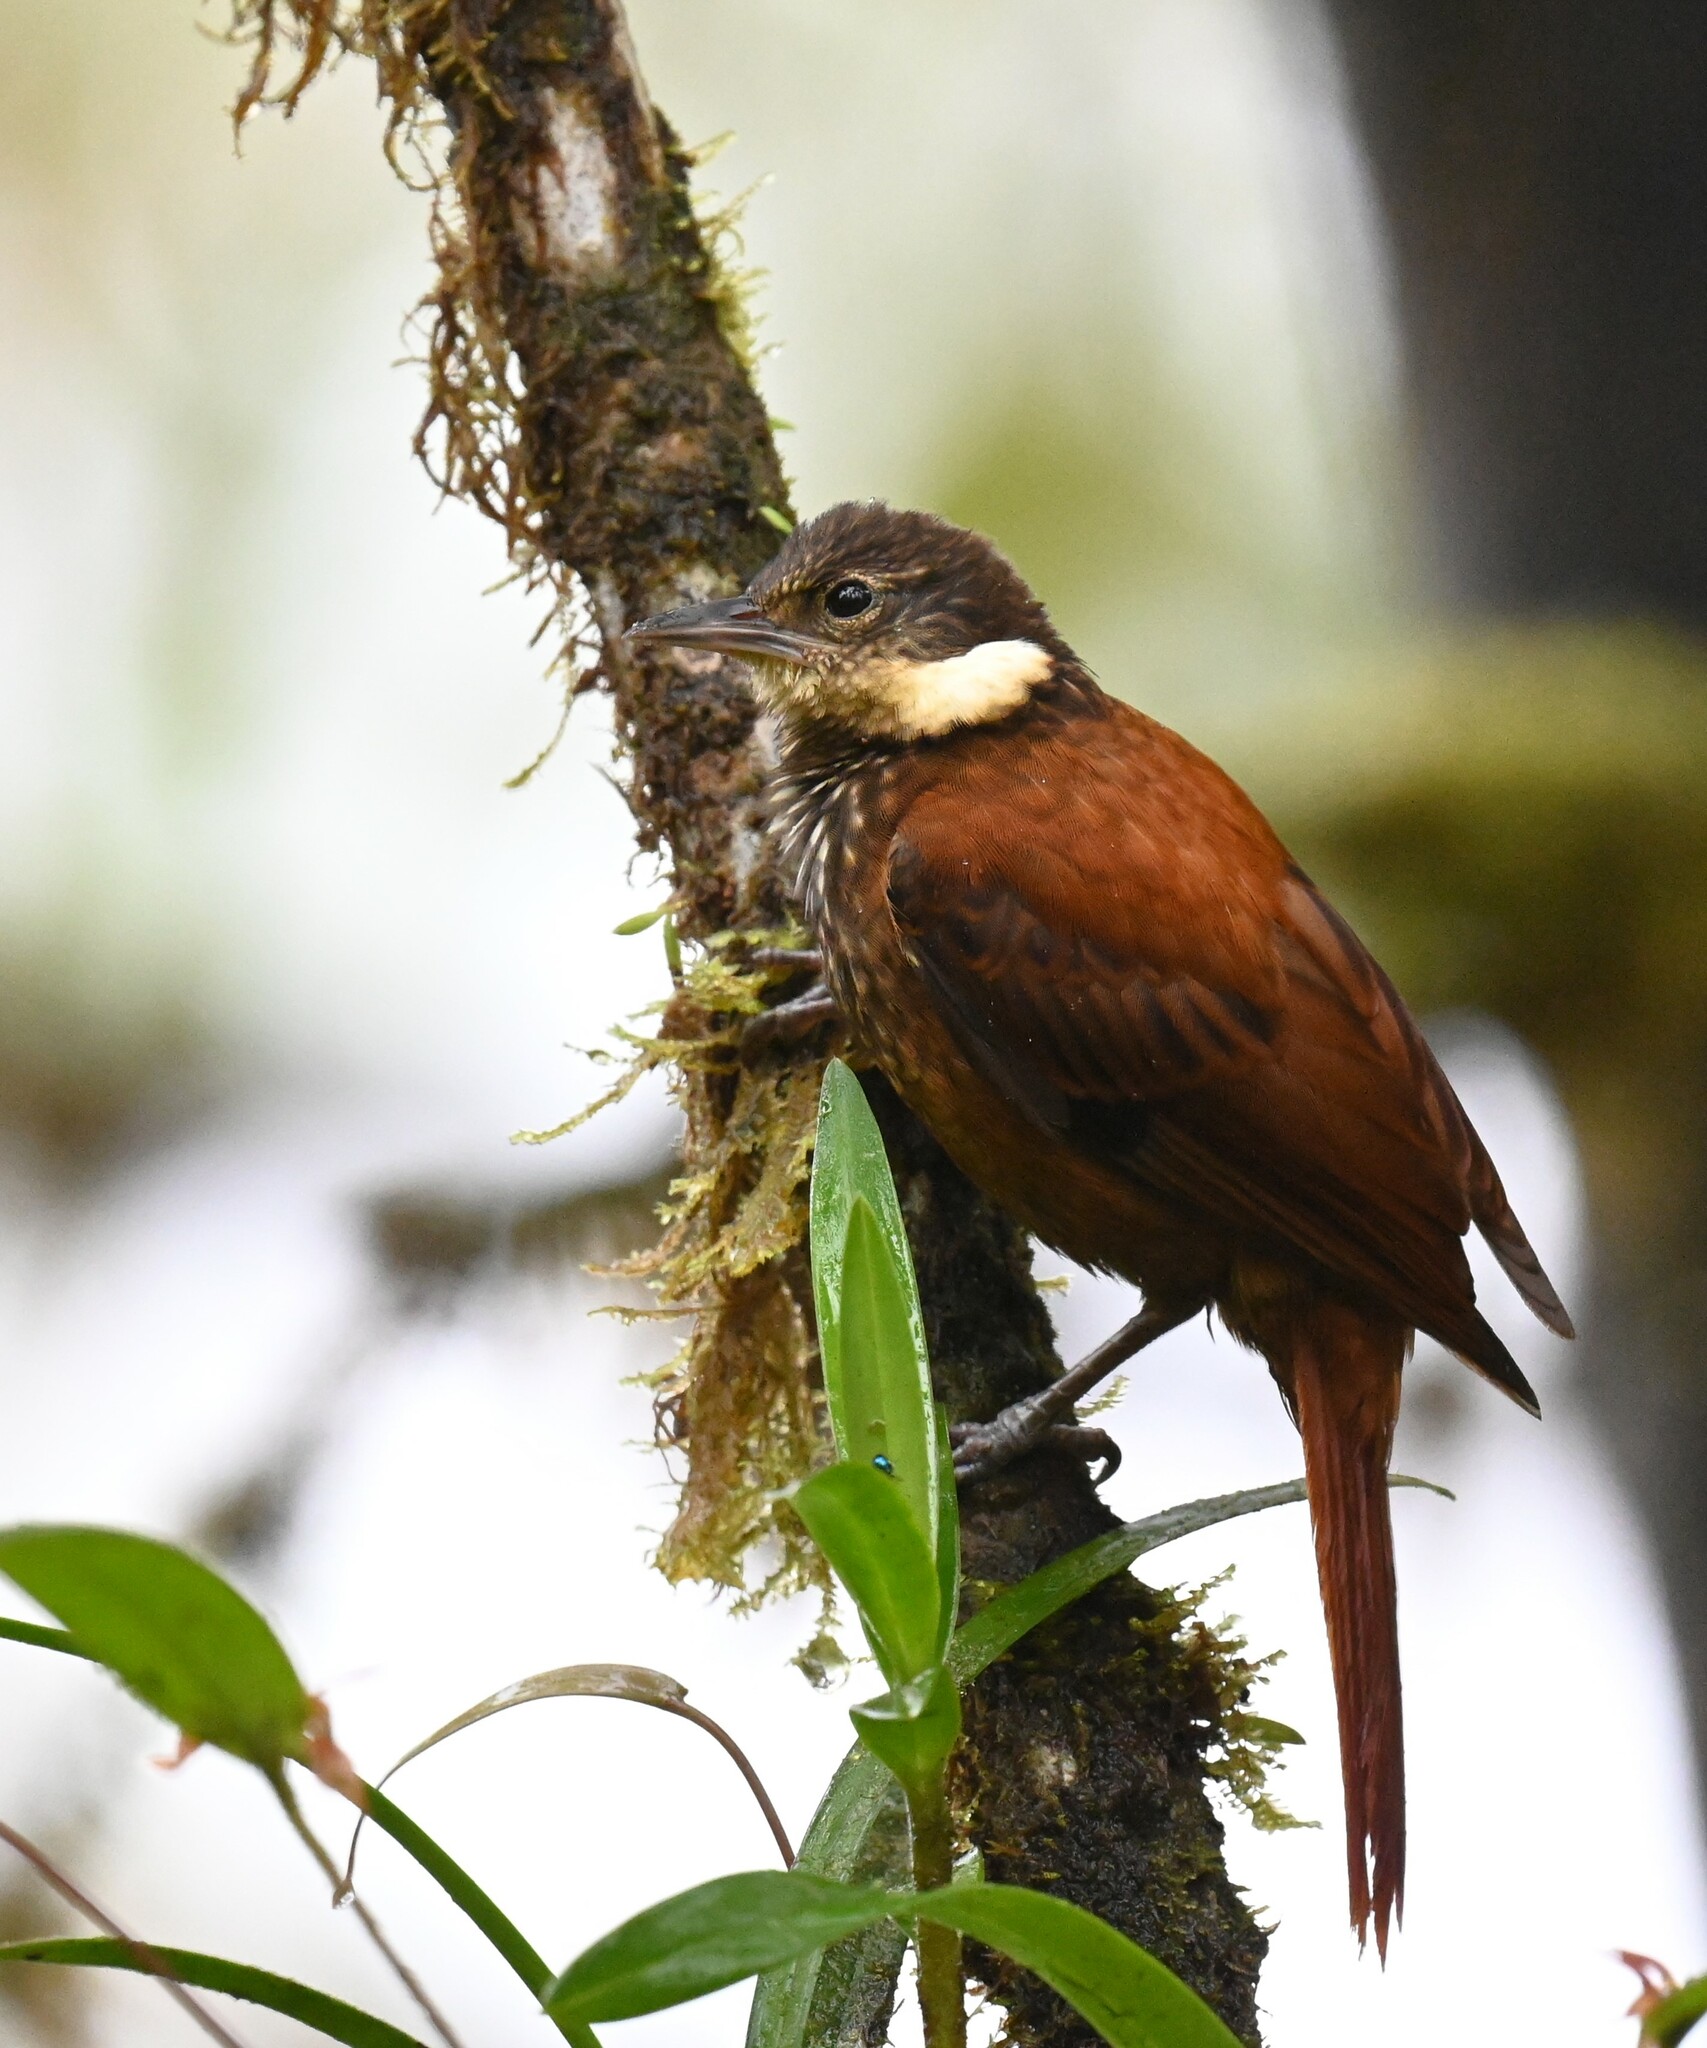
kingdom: Animalia
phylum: Chordata
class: Aves
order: Passeriformes
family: Furnariidae
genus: Pseudocolaptes
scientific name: Pseudocolaptes boissonneautii
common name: Streaked tuftedcheek
